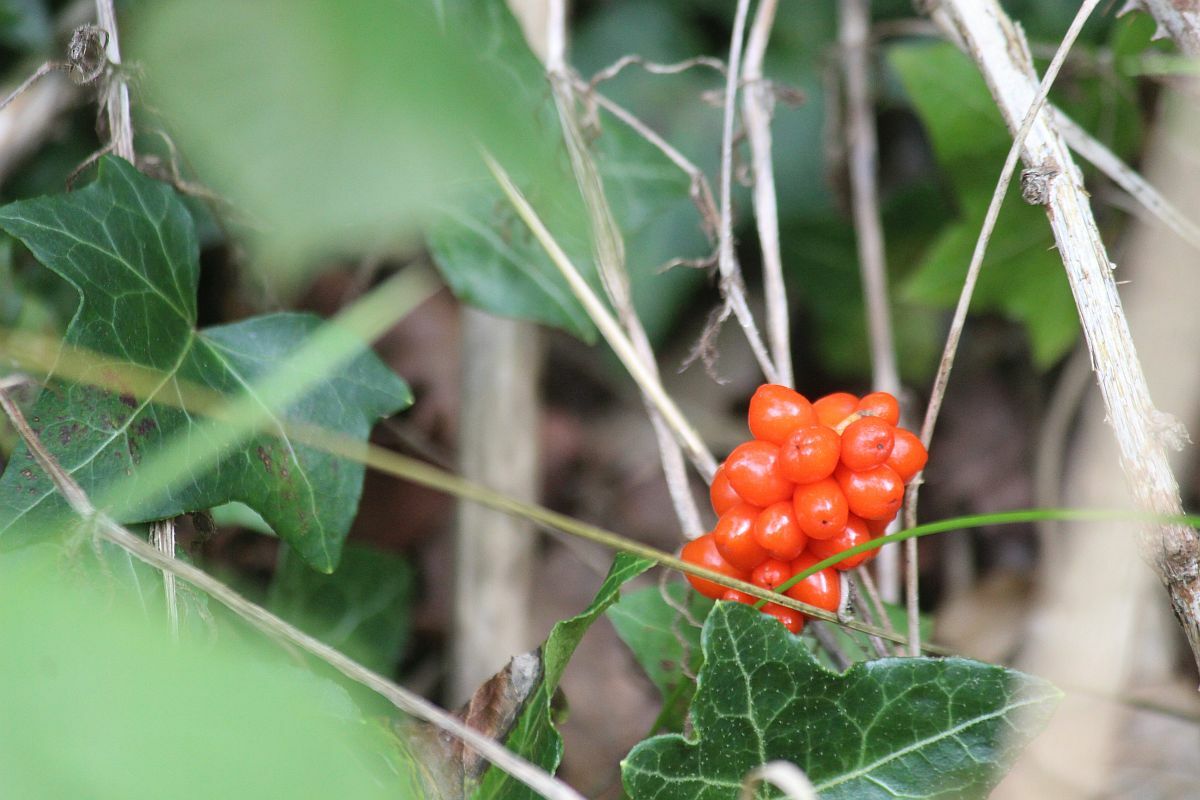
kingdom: Plantae
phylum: Tracheophyta
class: Liliopsida
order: Alismatales
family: Araceae
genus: Arum
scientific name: Arum maculatum
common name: Lords-and-ladies
